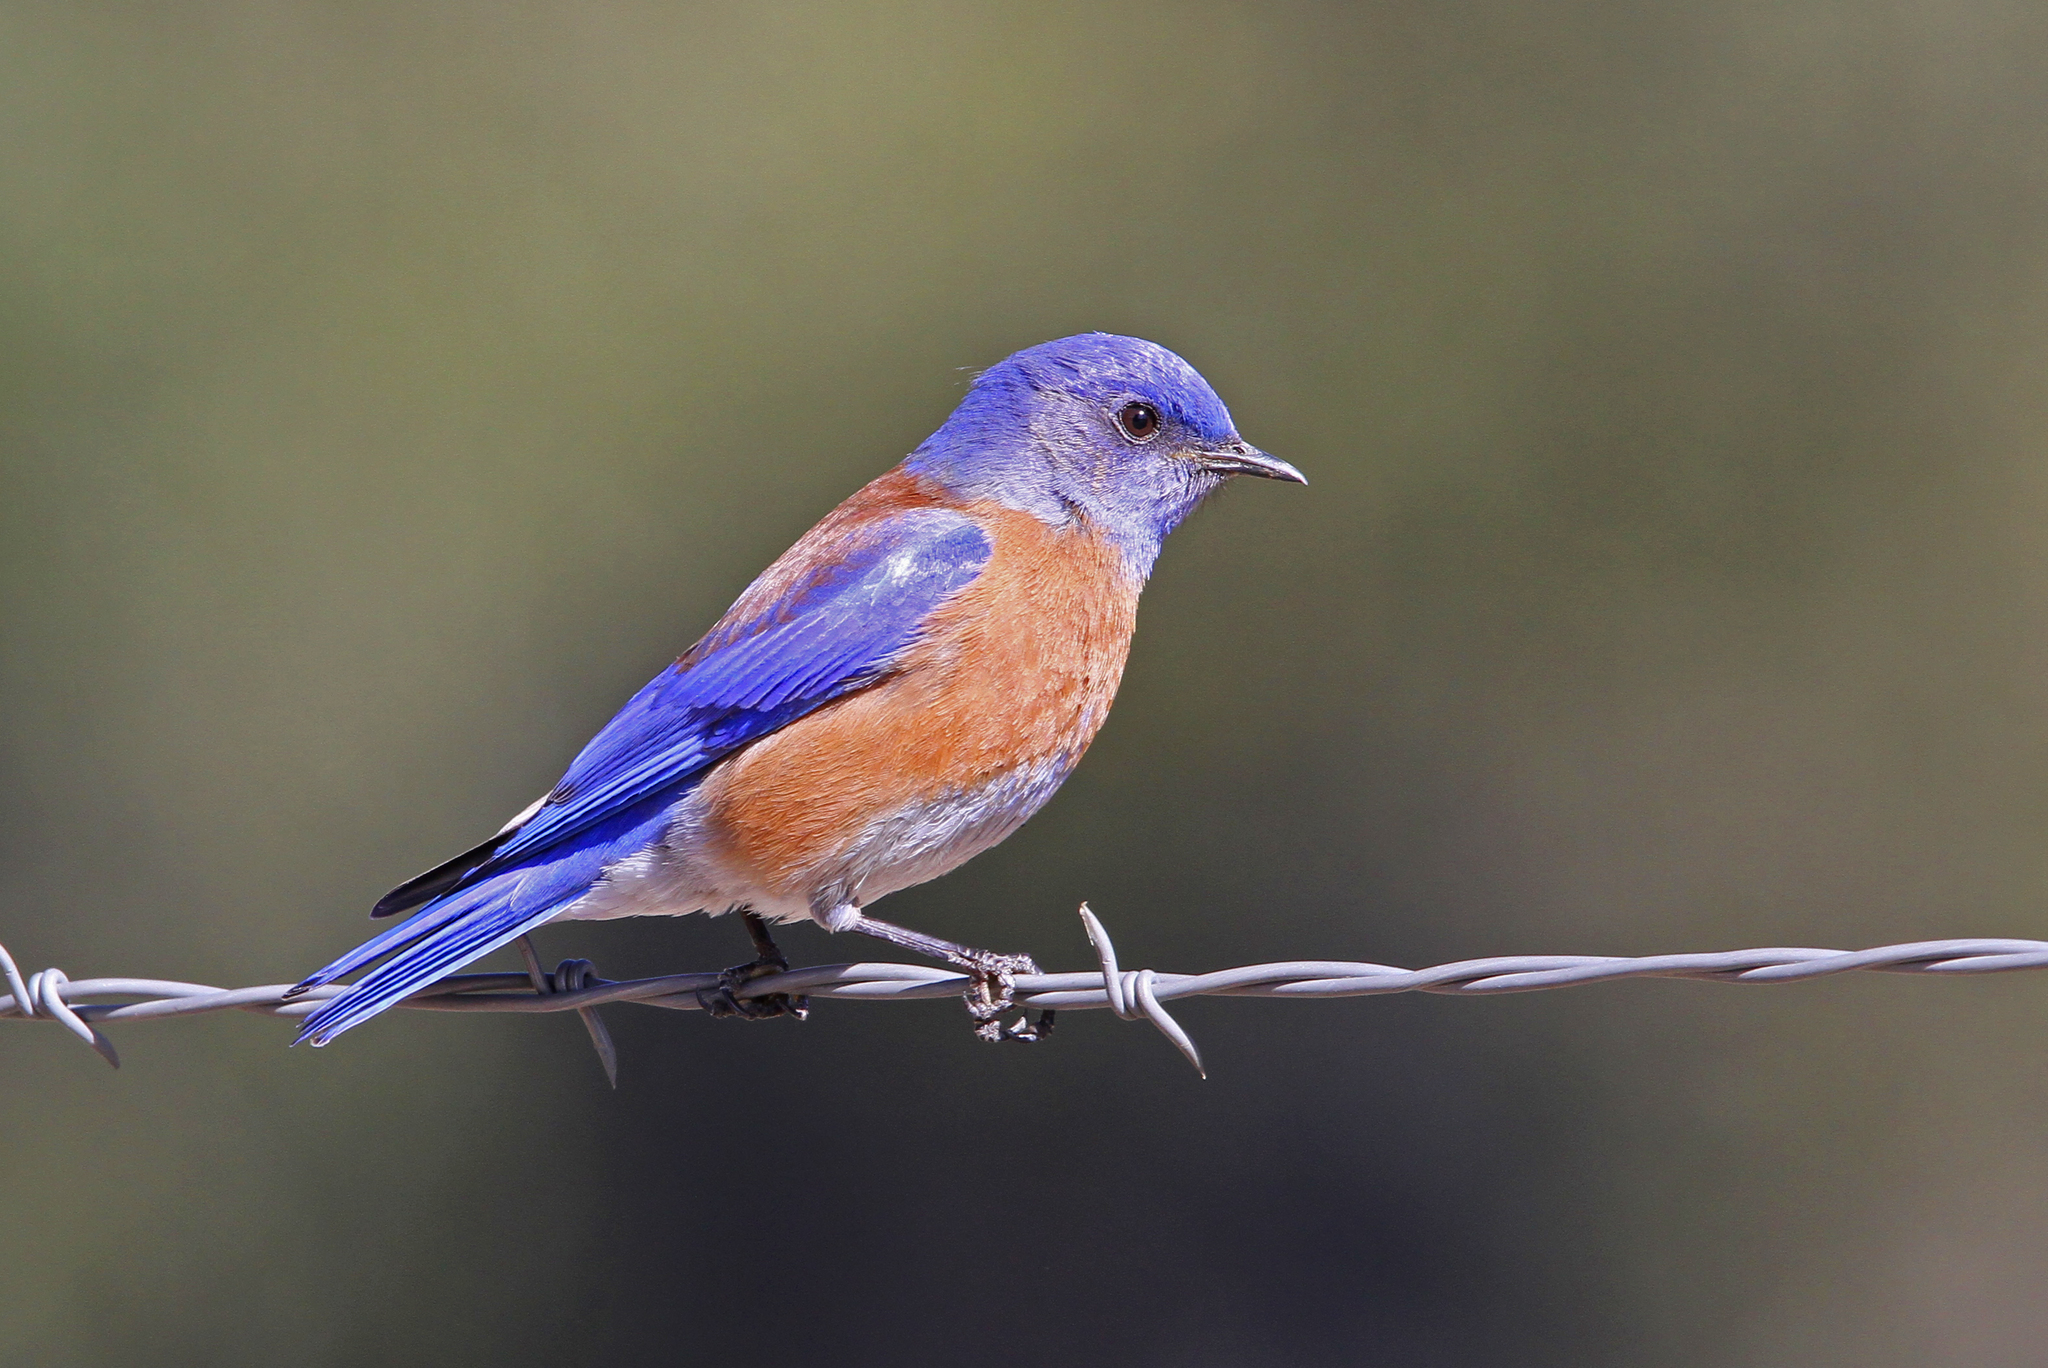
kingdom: Animalia
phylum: Chordata
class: Aves
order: Passeriformes
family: Turdidae
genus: Sialia
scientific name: Sialia mexicana
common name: Western bluebird
